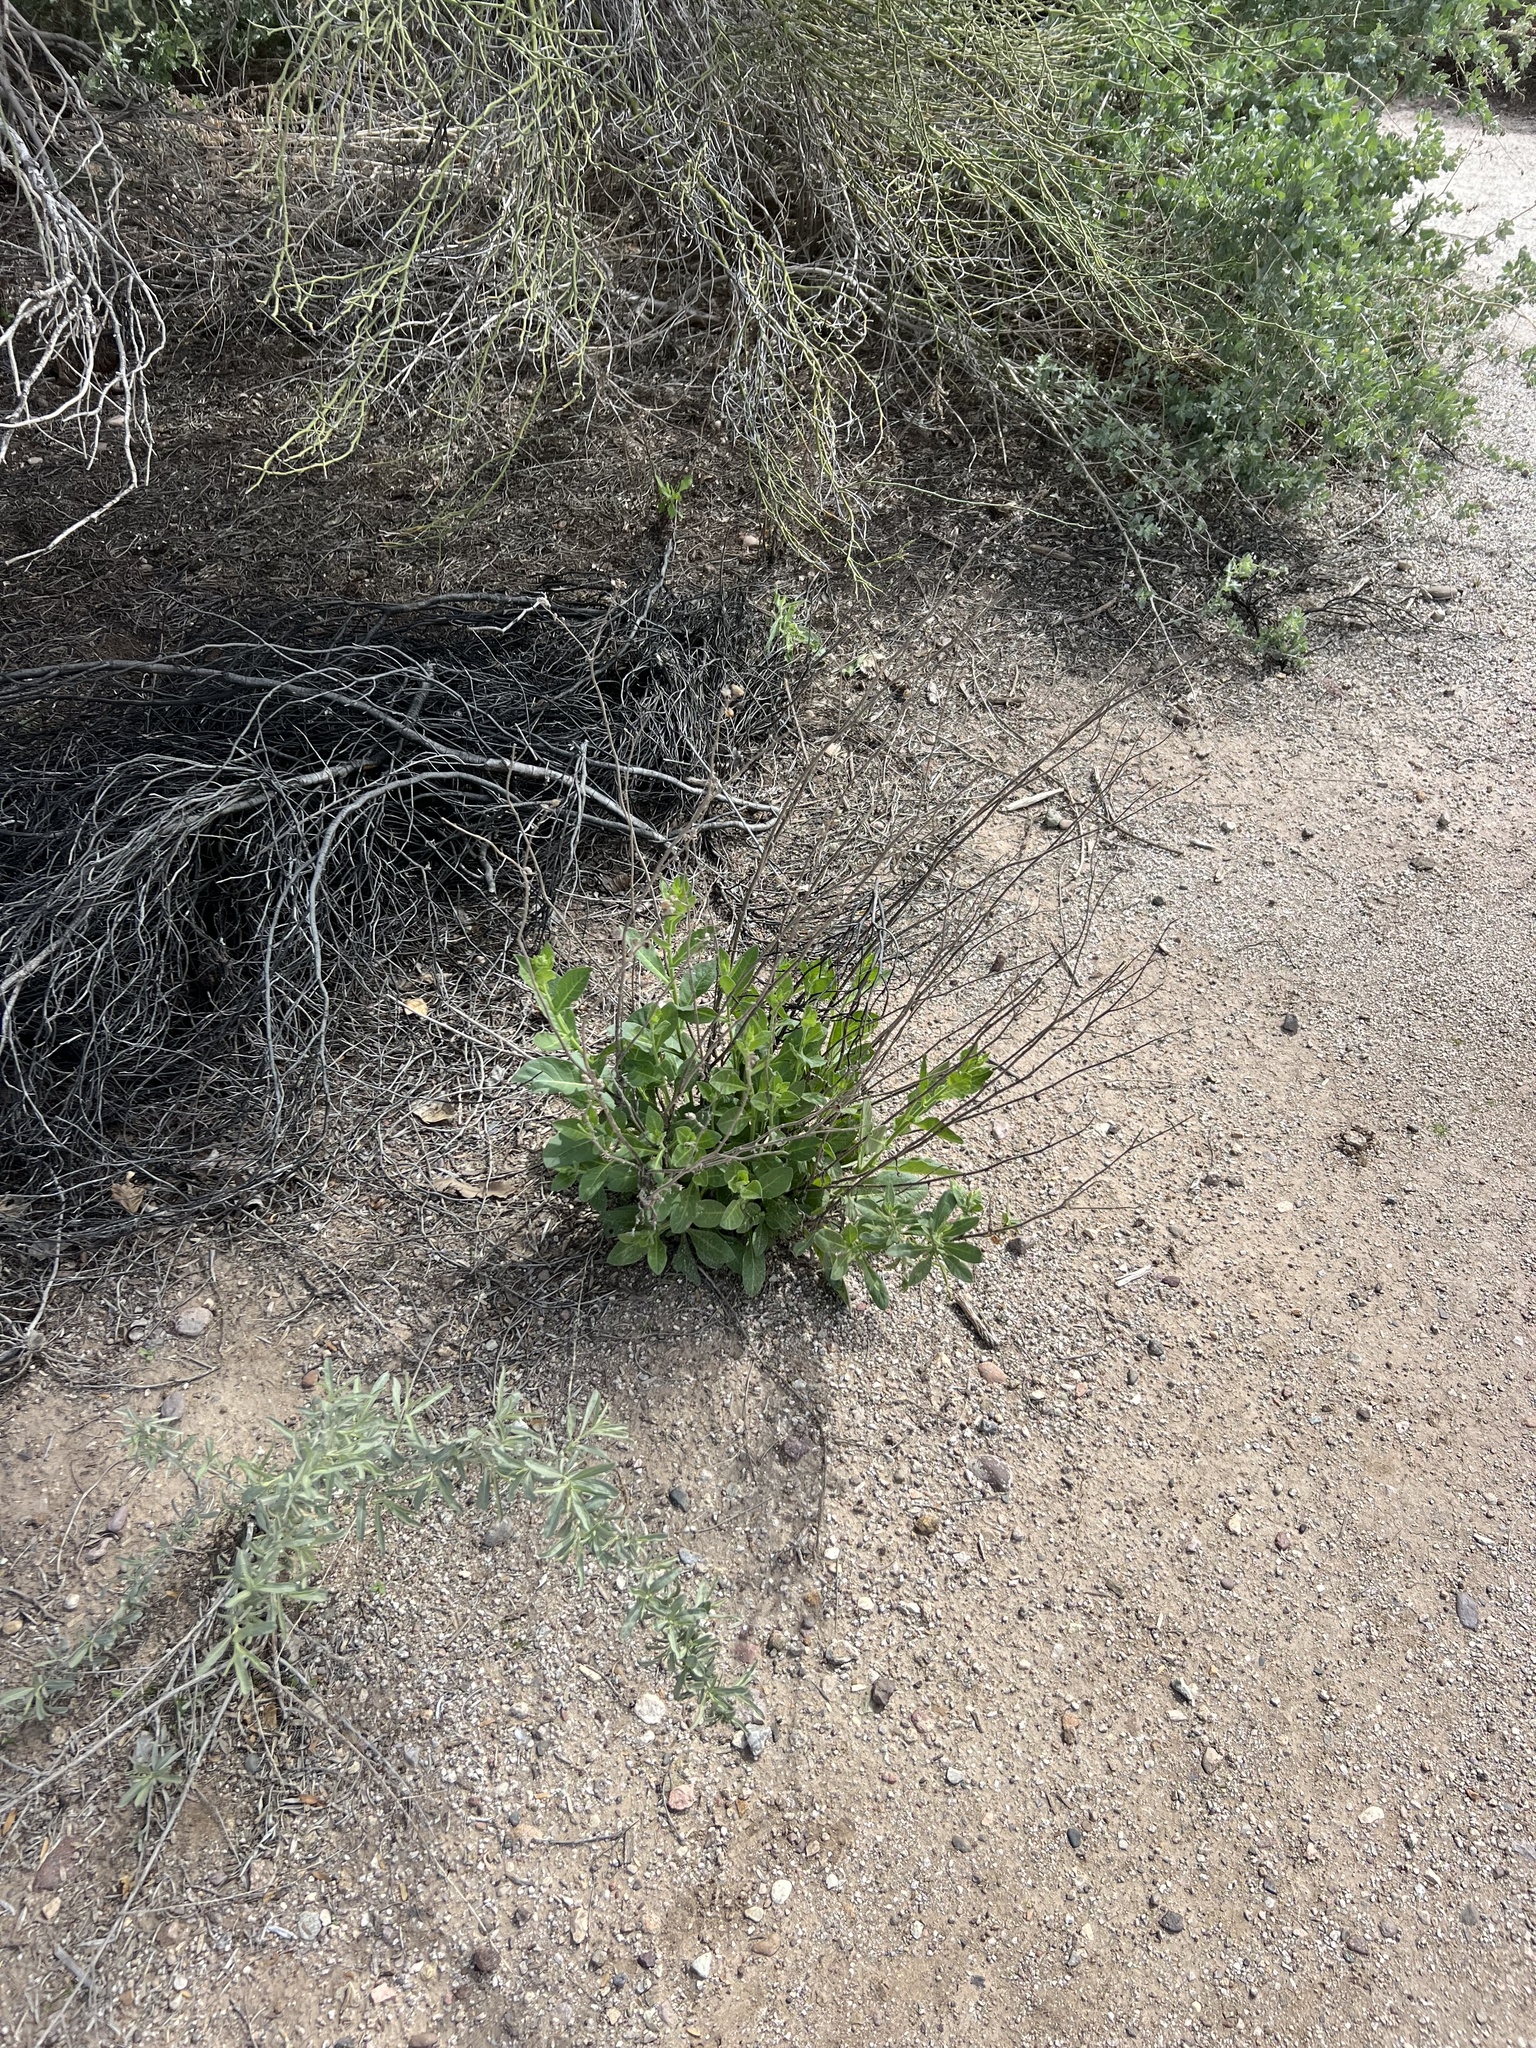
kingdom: Plantae
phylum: Tracheophyta
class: Magnoliopsida
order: Solanales
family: Solanaceae
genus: Nicotiana
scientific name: Nicotiana obtusifolia
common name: Desert tobacco
